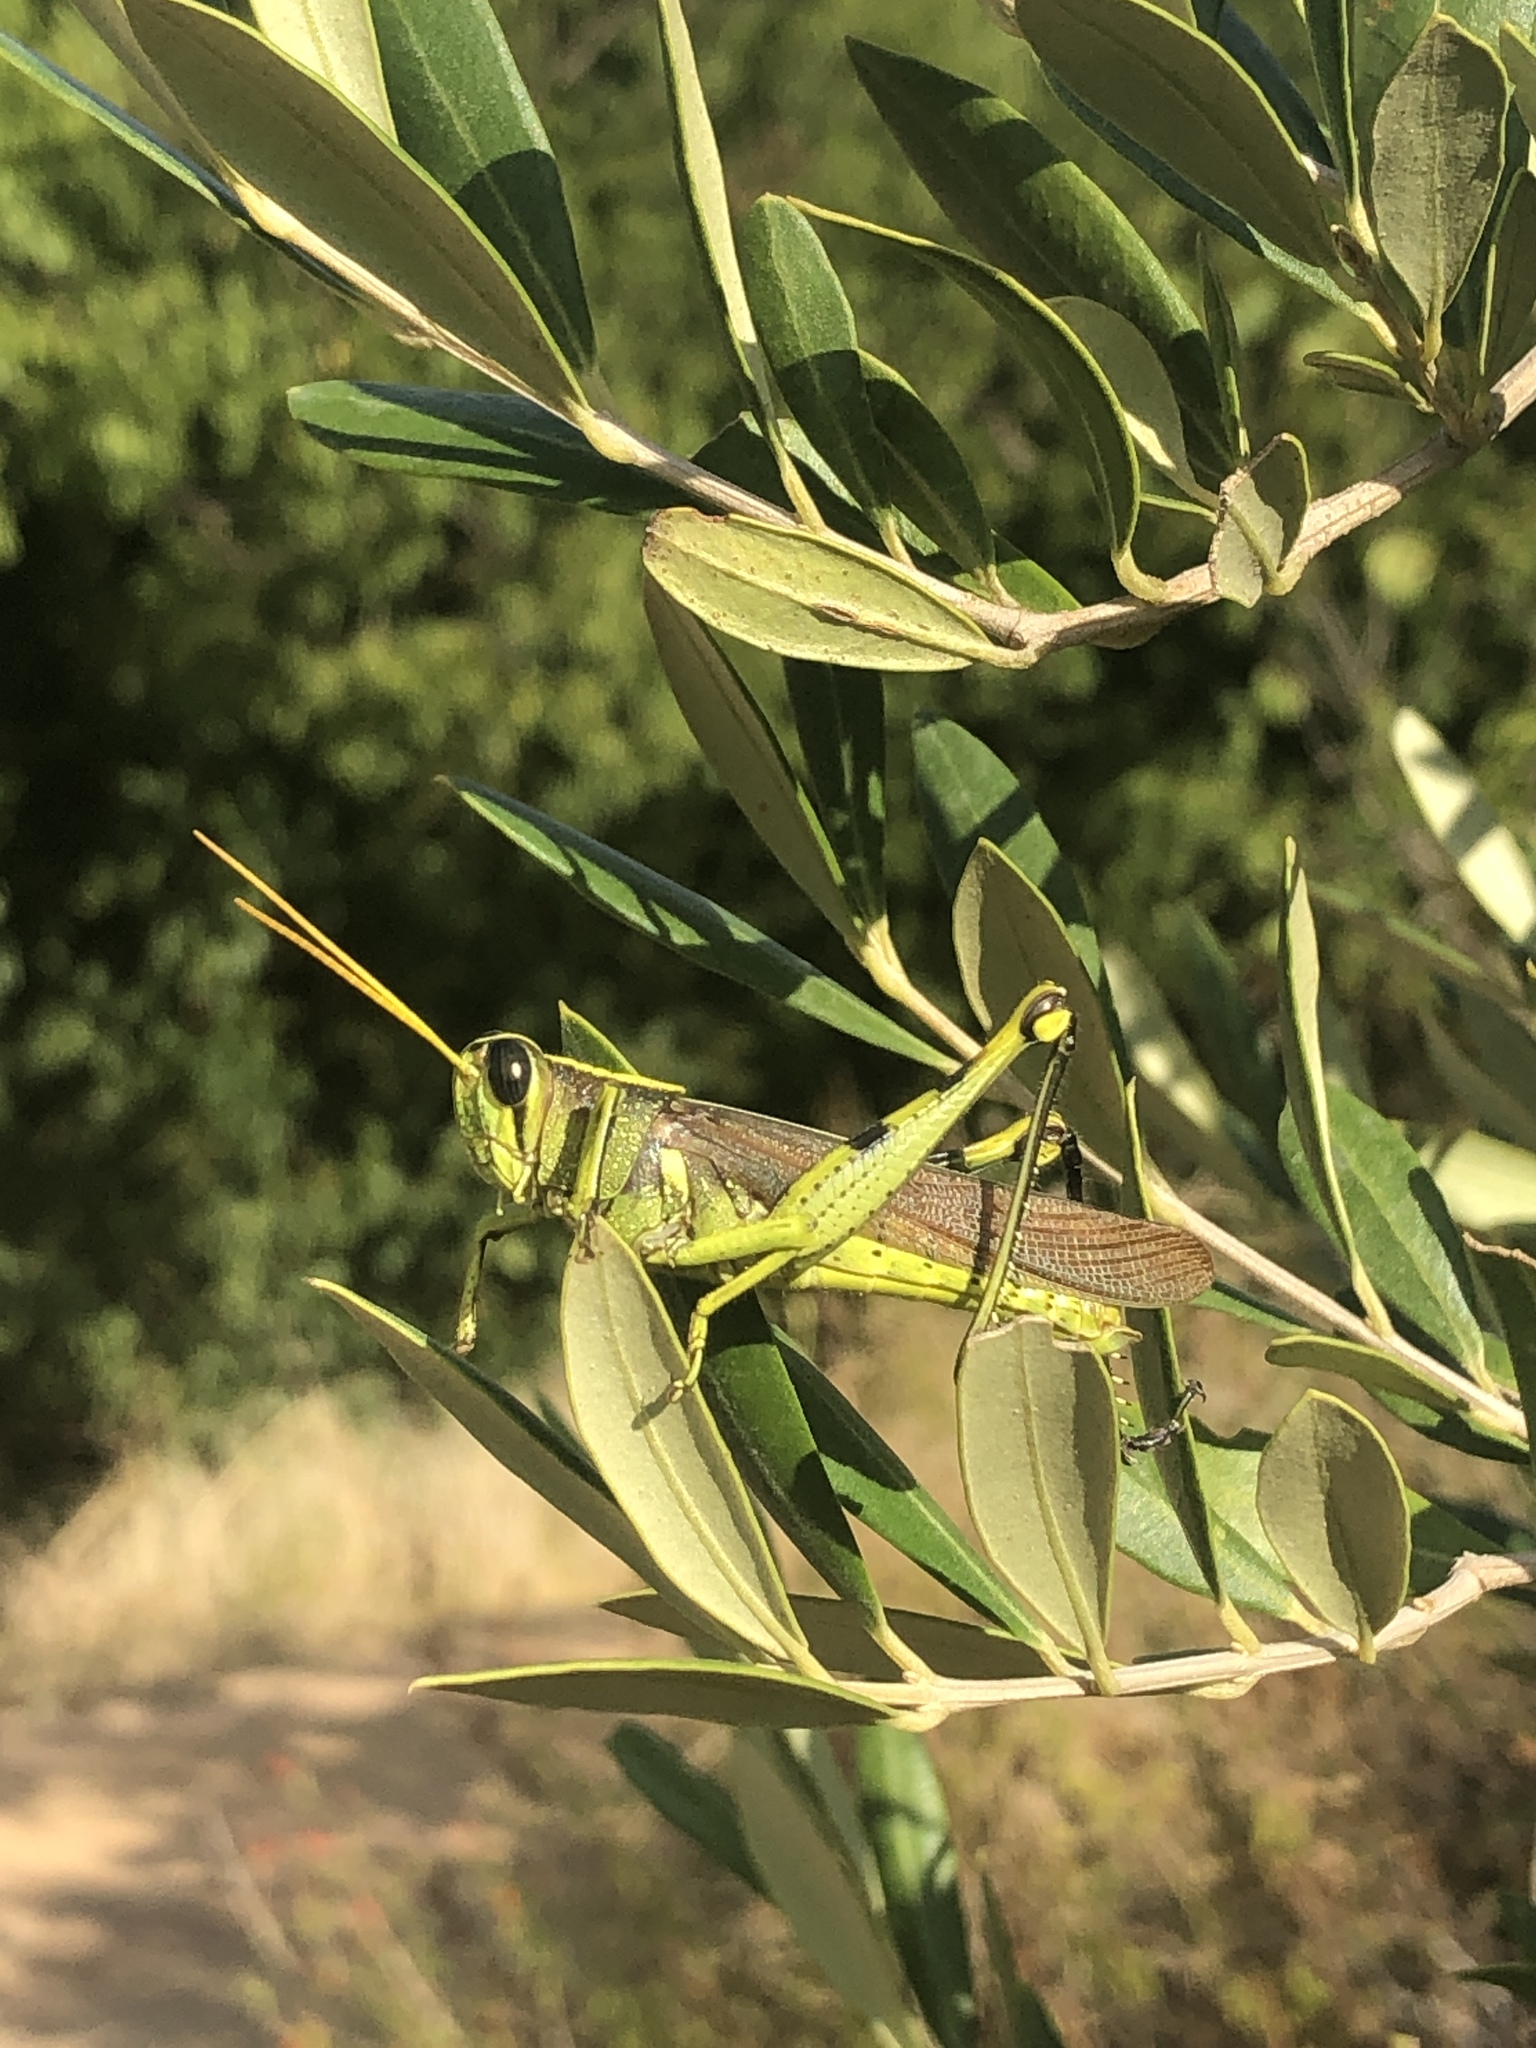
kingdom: Animalia
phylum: Arthropoda
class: Insecta
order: Orthoptera
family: Acrididae
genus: Schistocerca
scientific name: Schistocerca obscura
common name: Obscure bird grasshopper
